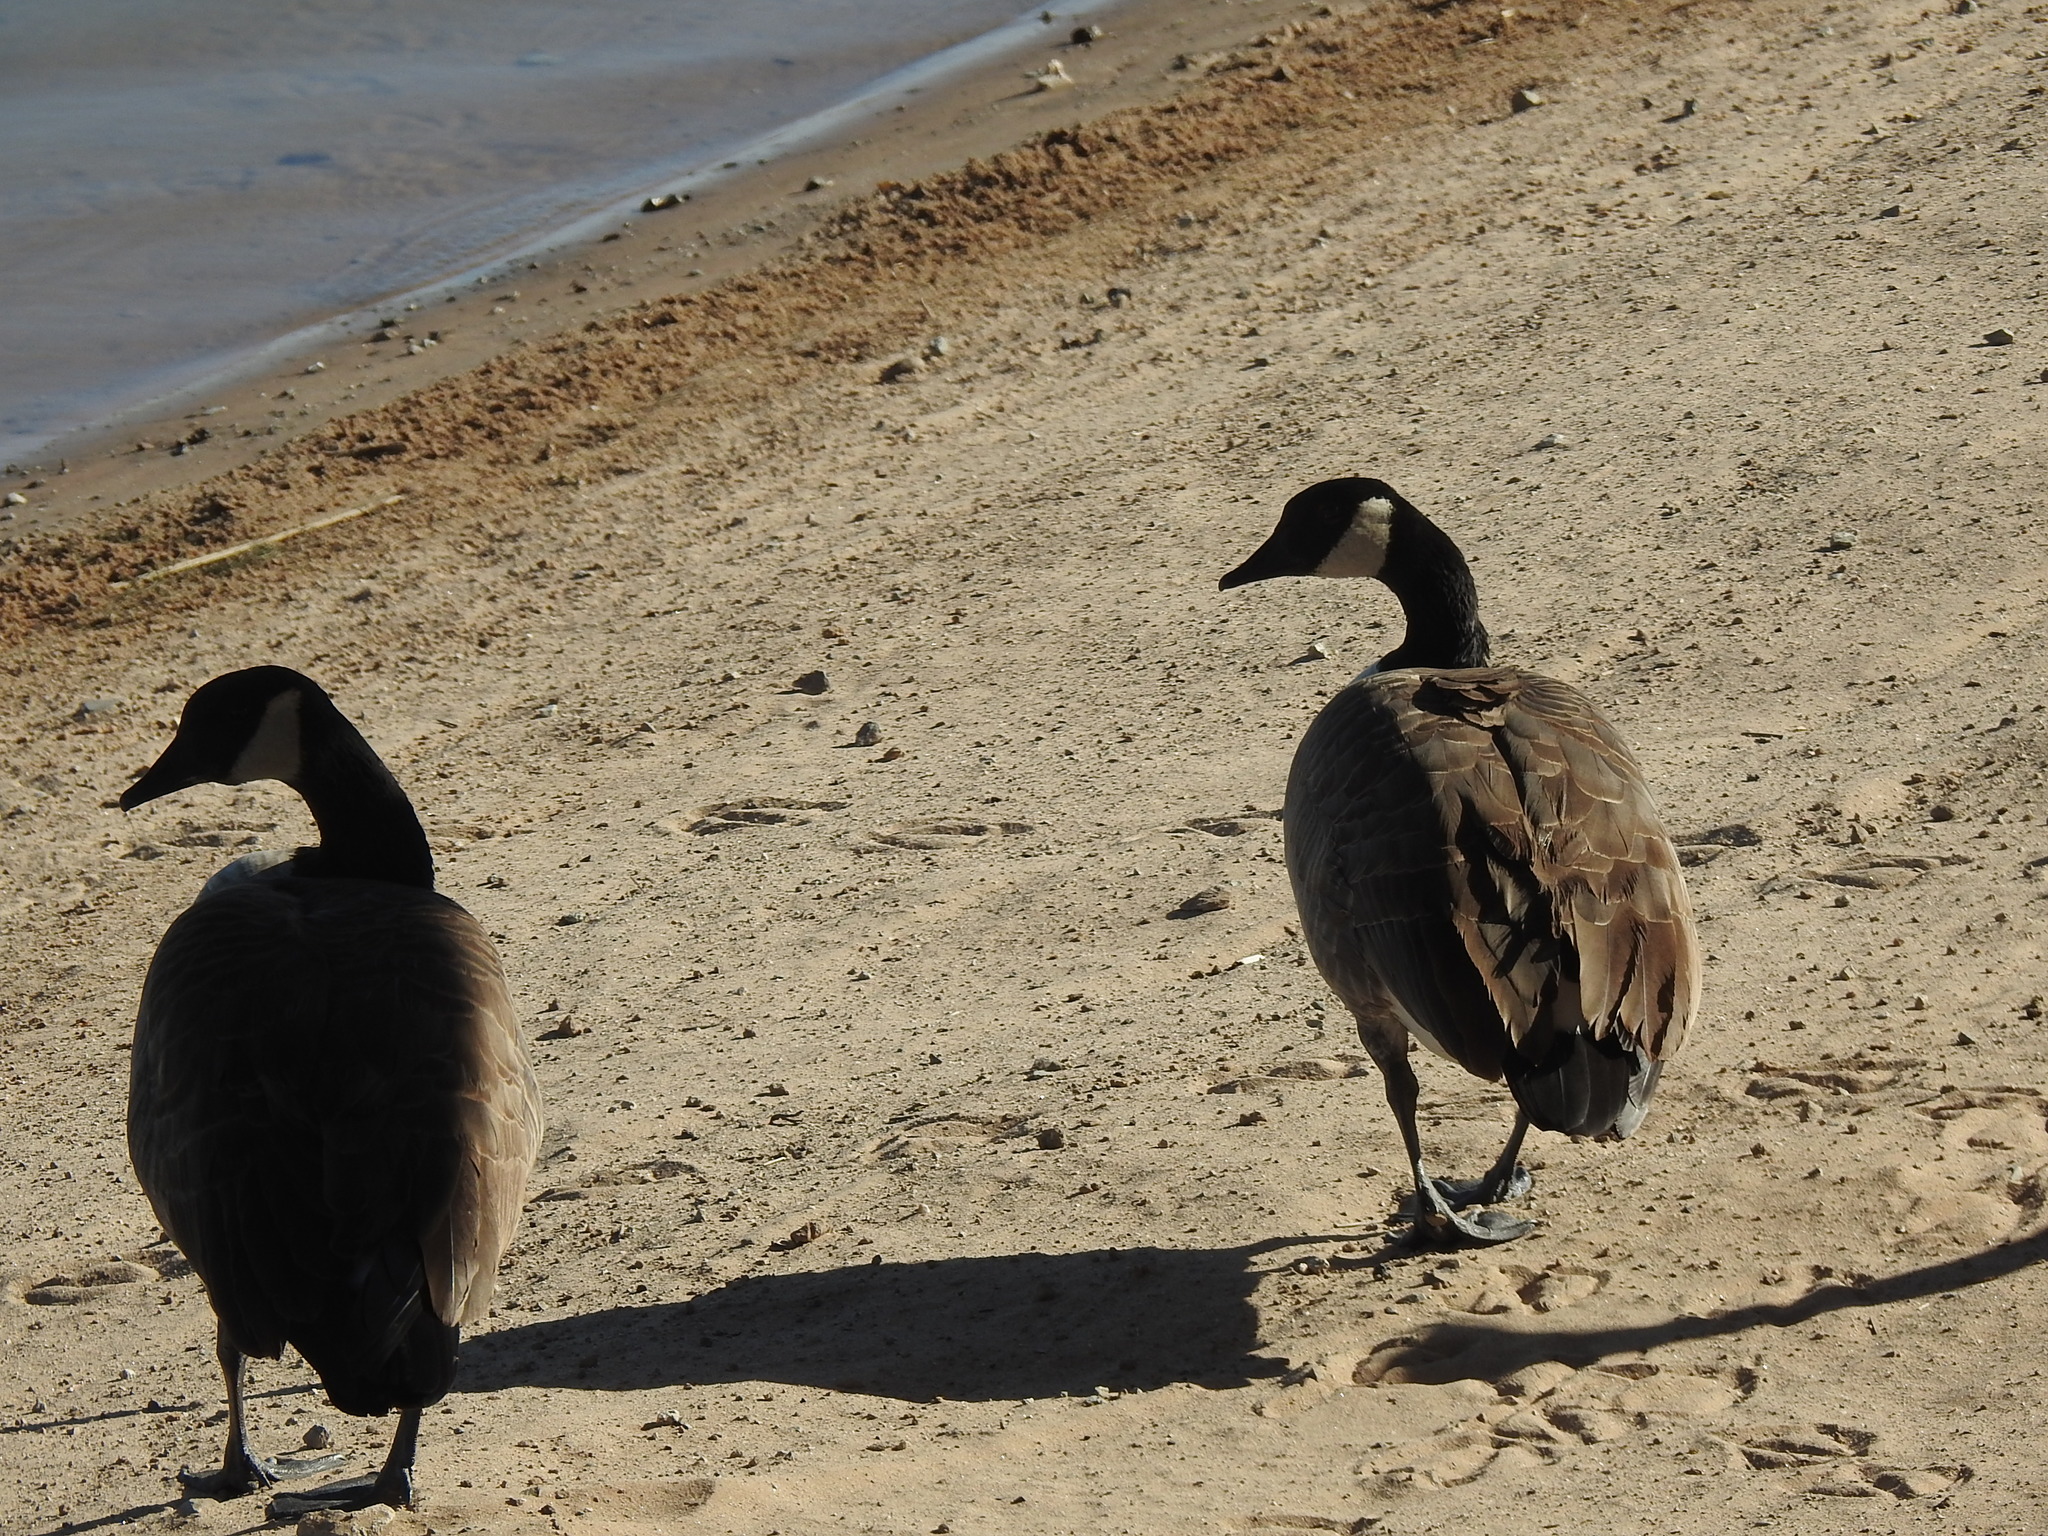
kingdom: Animalia
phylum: Chordata
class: Aves
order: Anseriformes
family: Anatidae
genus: Branta
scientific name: Branta canadensis
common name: Canada goose
